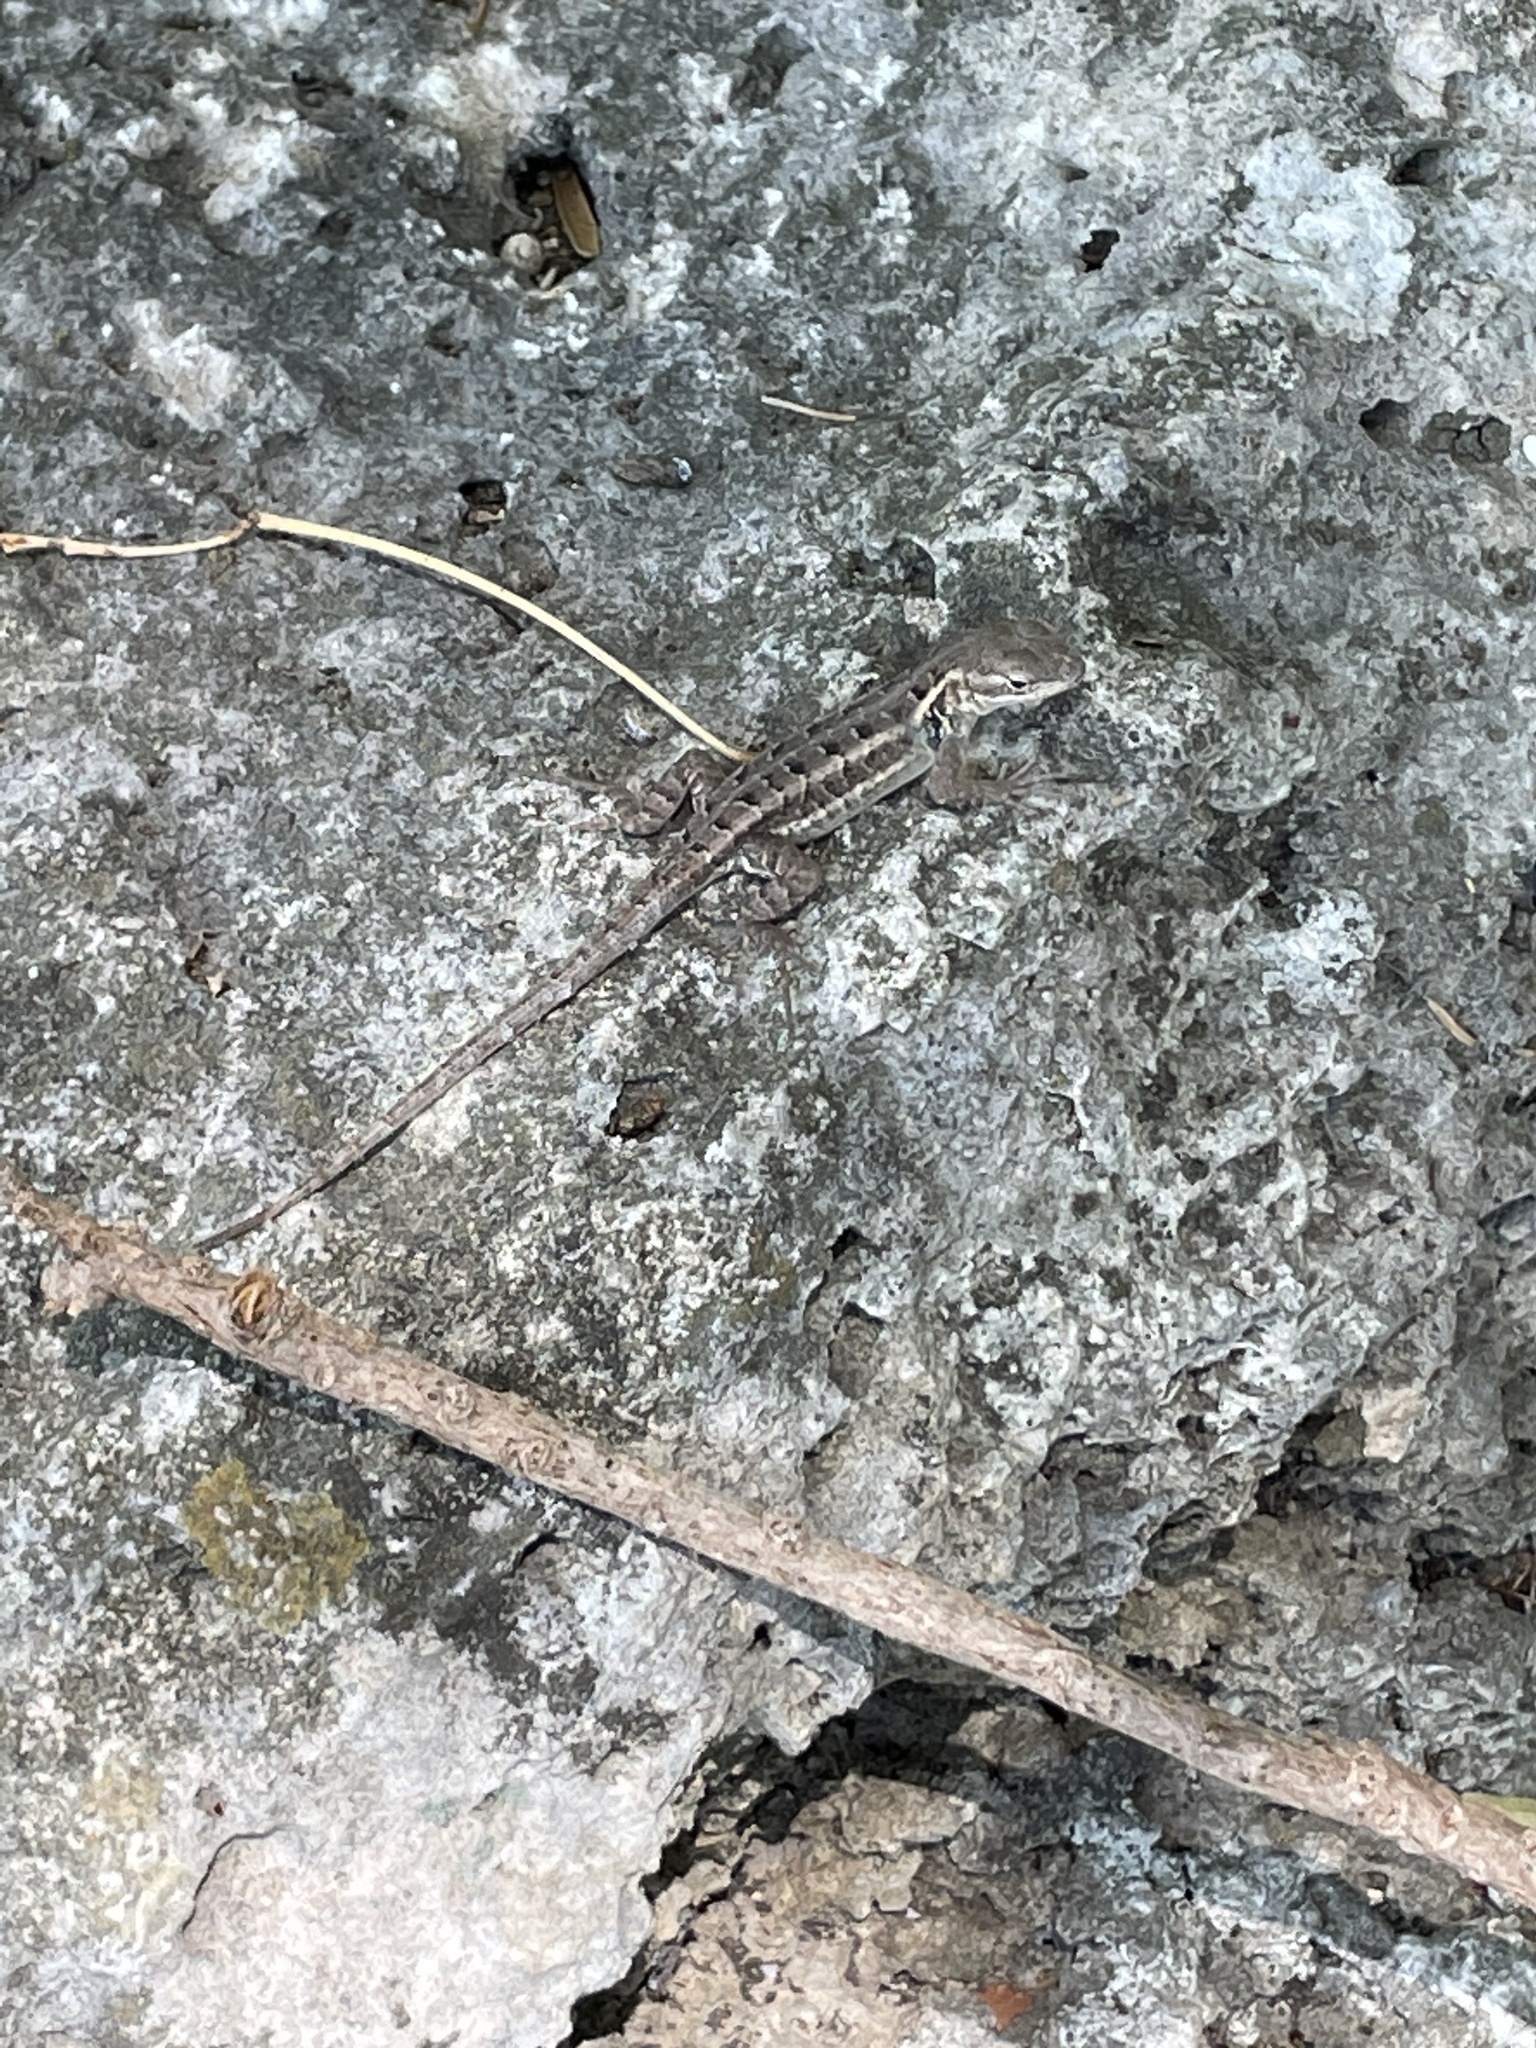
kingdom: Animalia
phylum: Chordata
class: Squamata
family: Phrynosomatidae
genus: Sceloporus
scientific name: Sceloporus variabilis
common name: Rosebelly lizard
